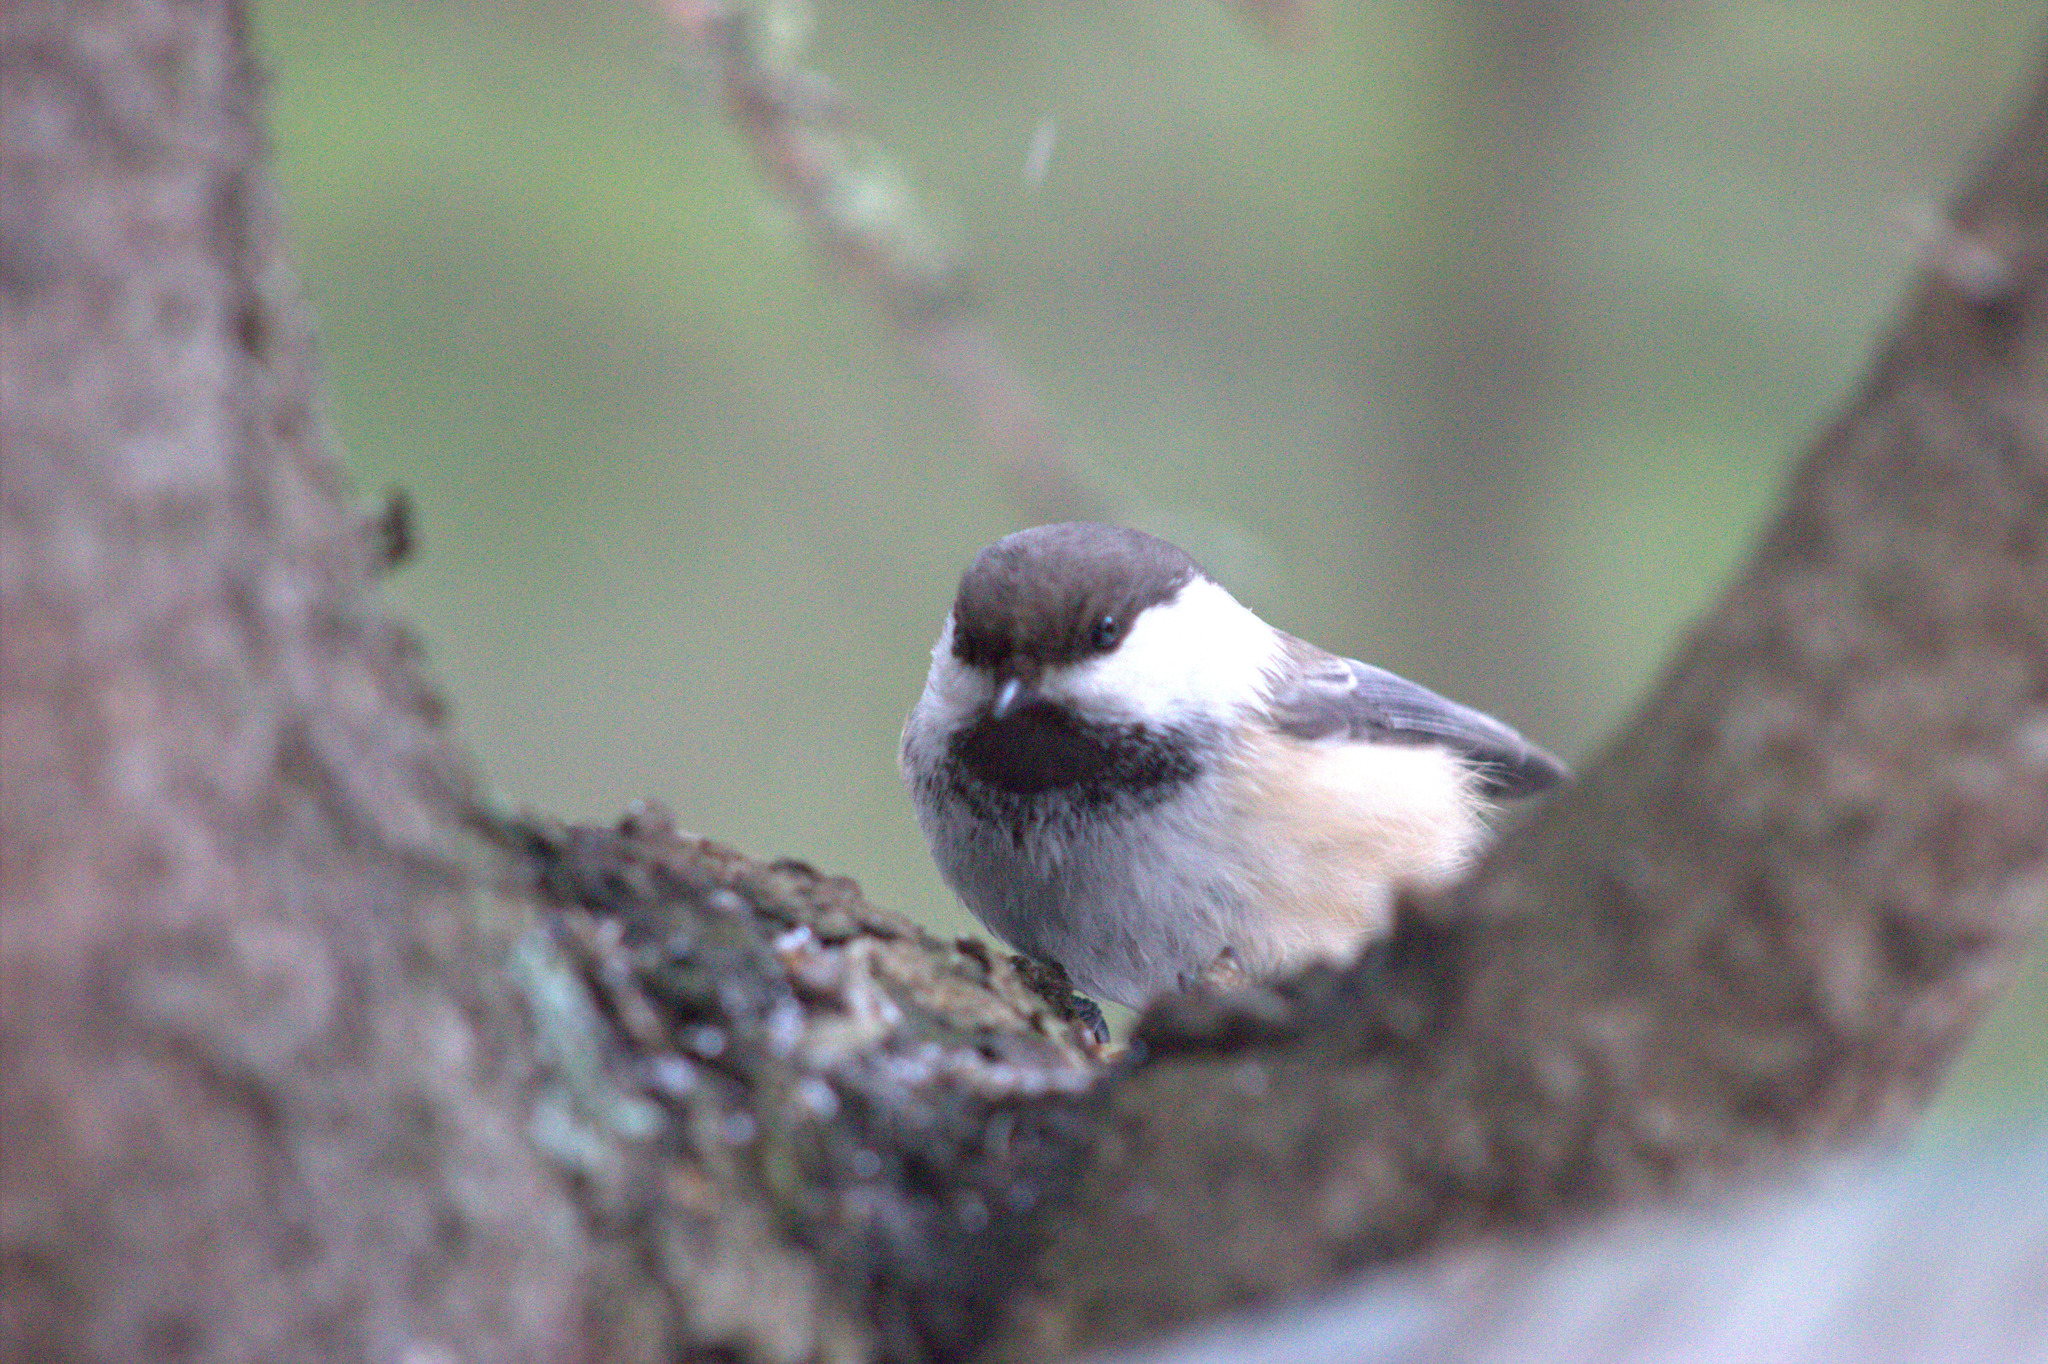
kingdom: Animalia
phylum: Chordata
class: Aves
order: Passeriformes
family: Paridae
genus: Poecile
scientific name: Poecile cinctus
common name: Gray-headed chickadee
